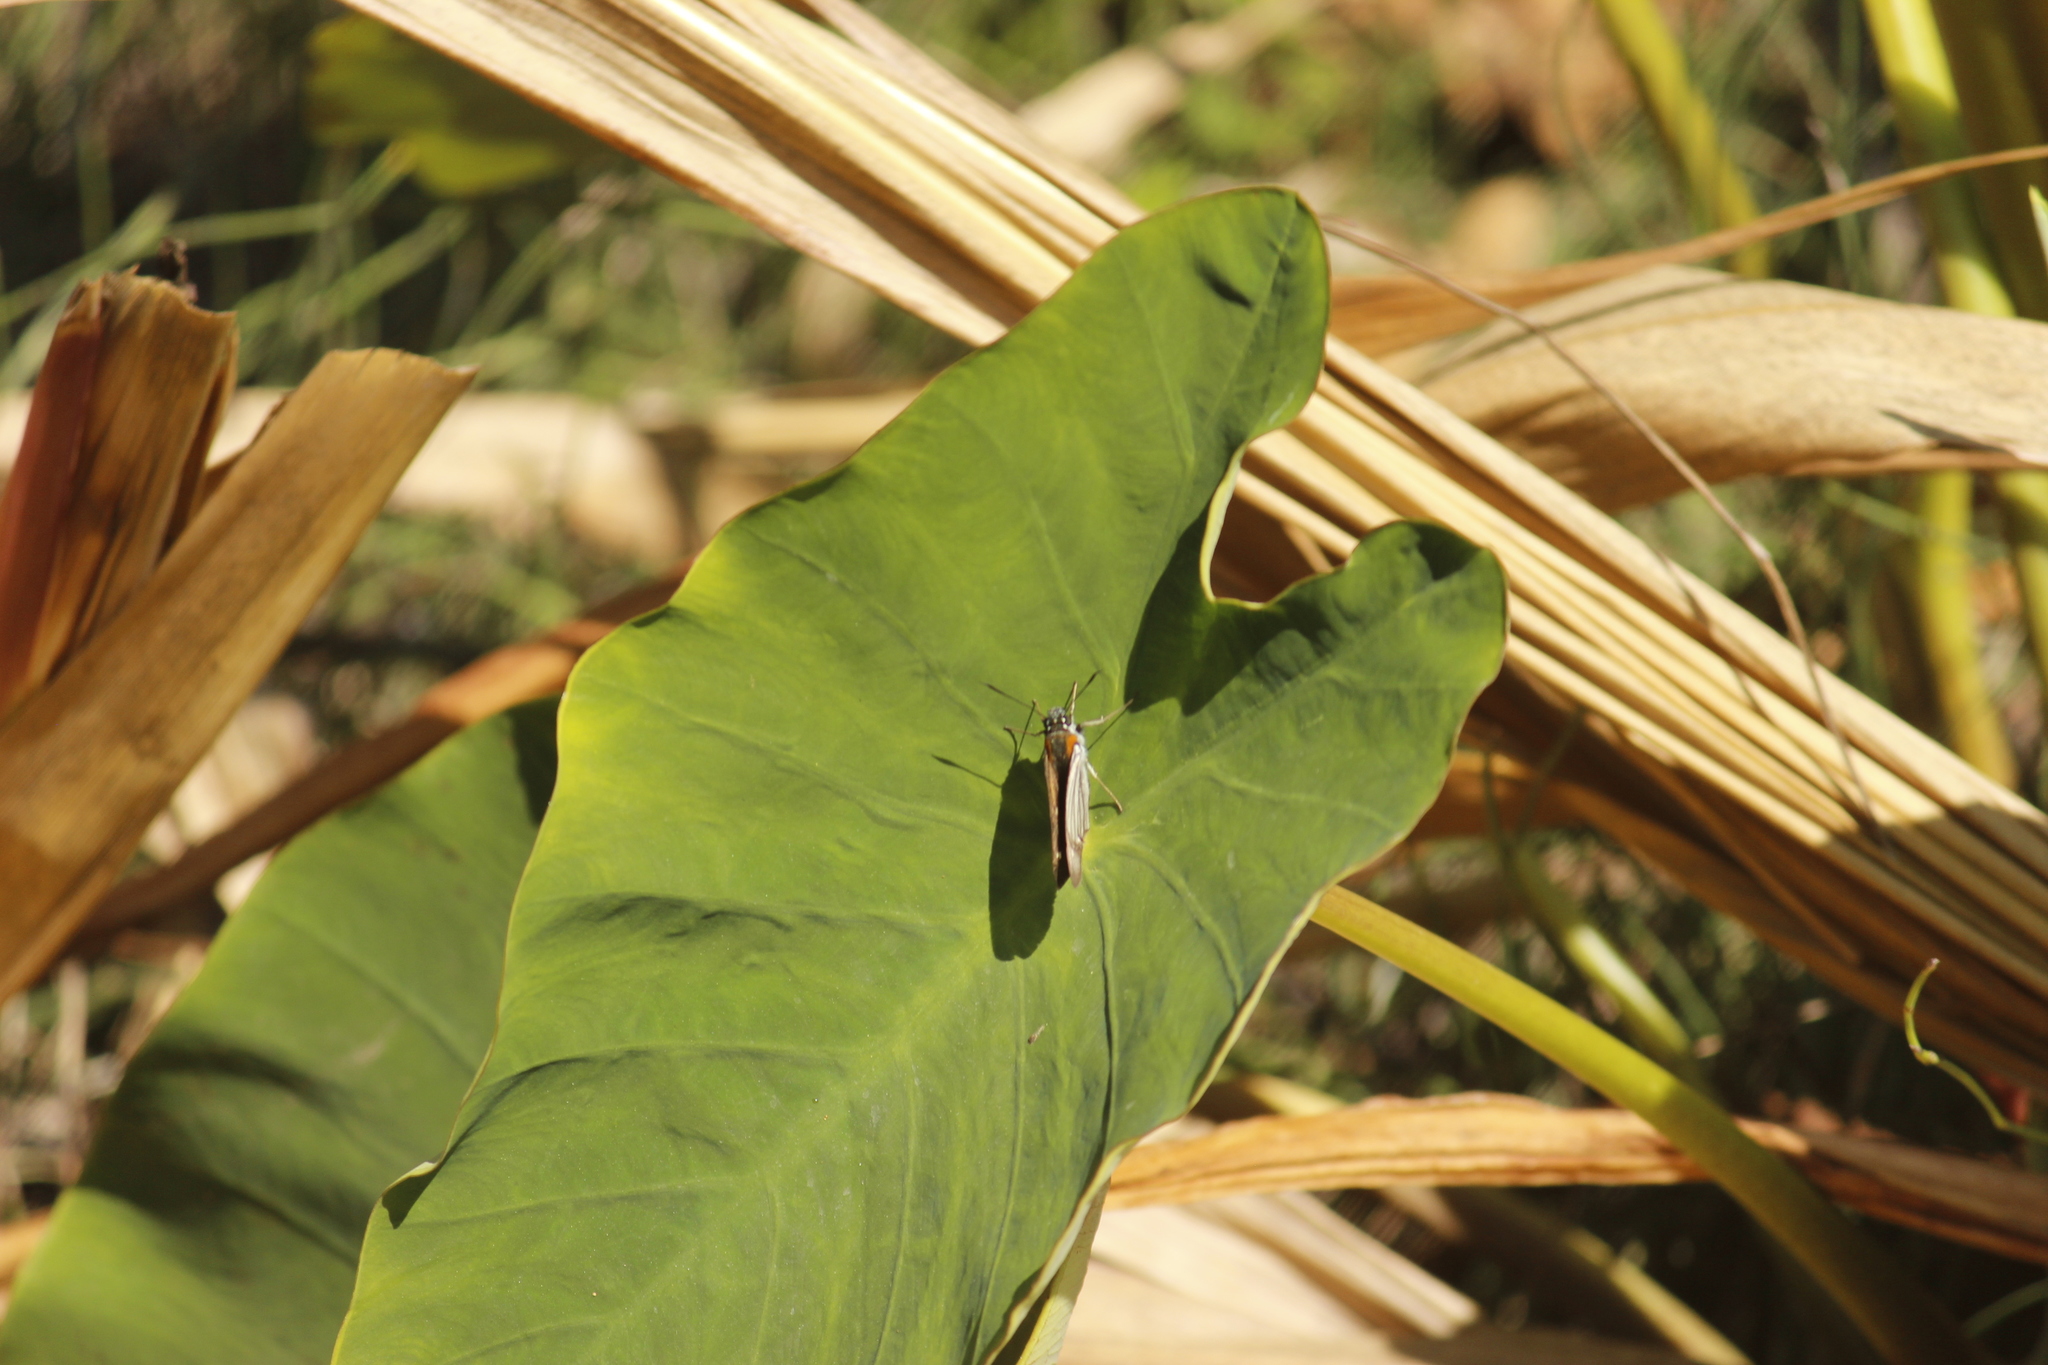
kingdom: Animalia
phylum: Arthropoda
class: Insecta
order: Lepidoptera
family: Hesperiidae
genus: Paracarystus
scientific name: Paracarystus hypargyra
